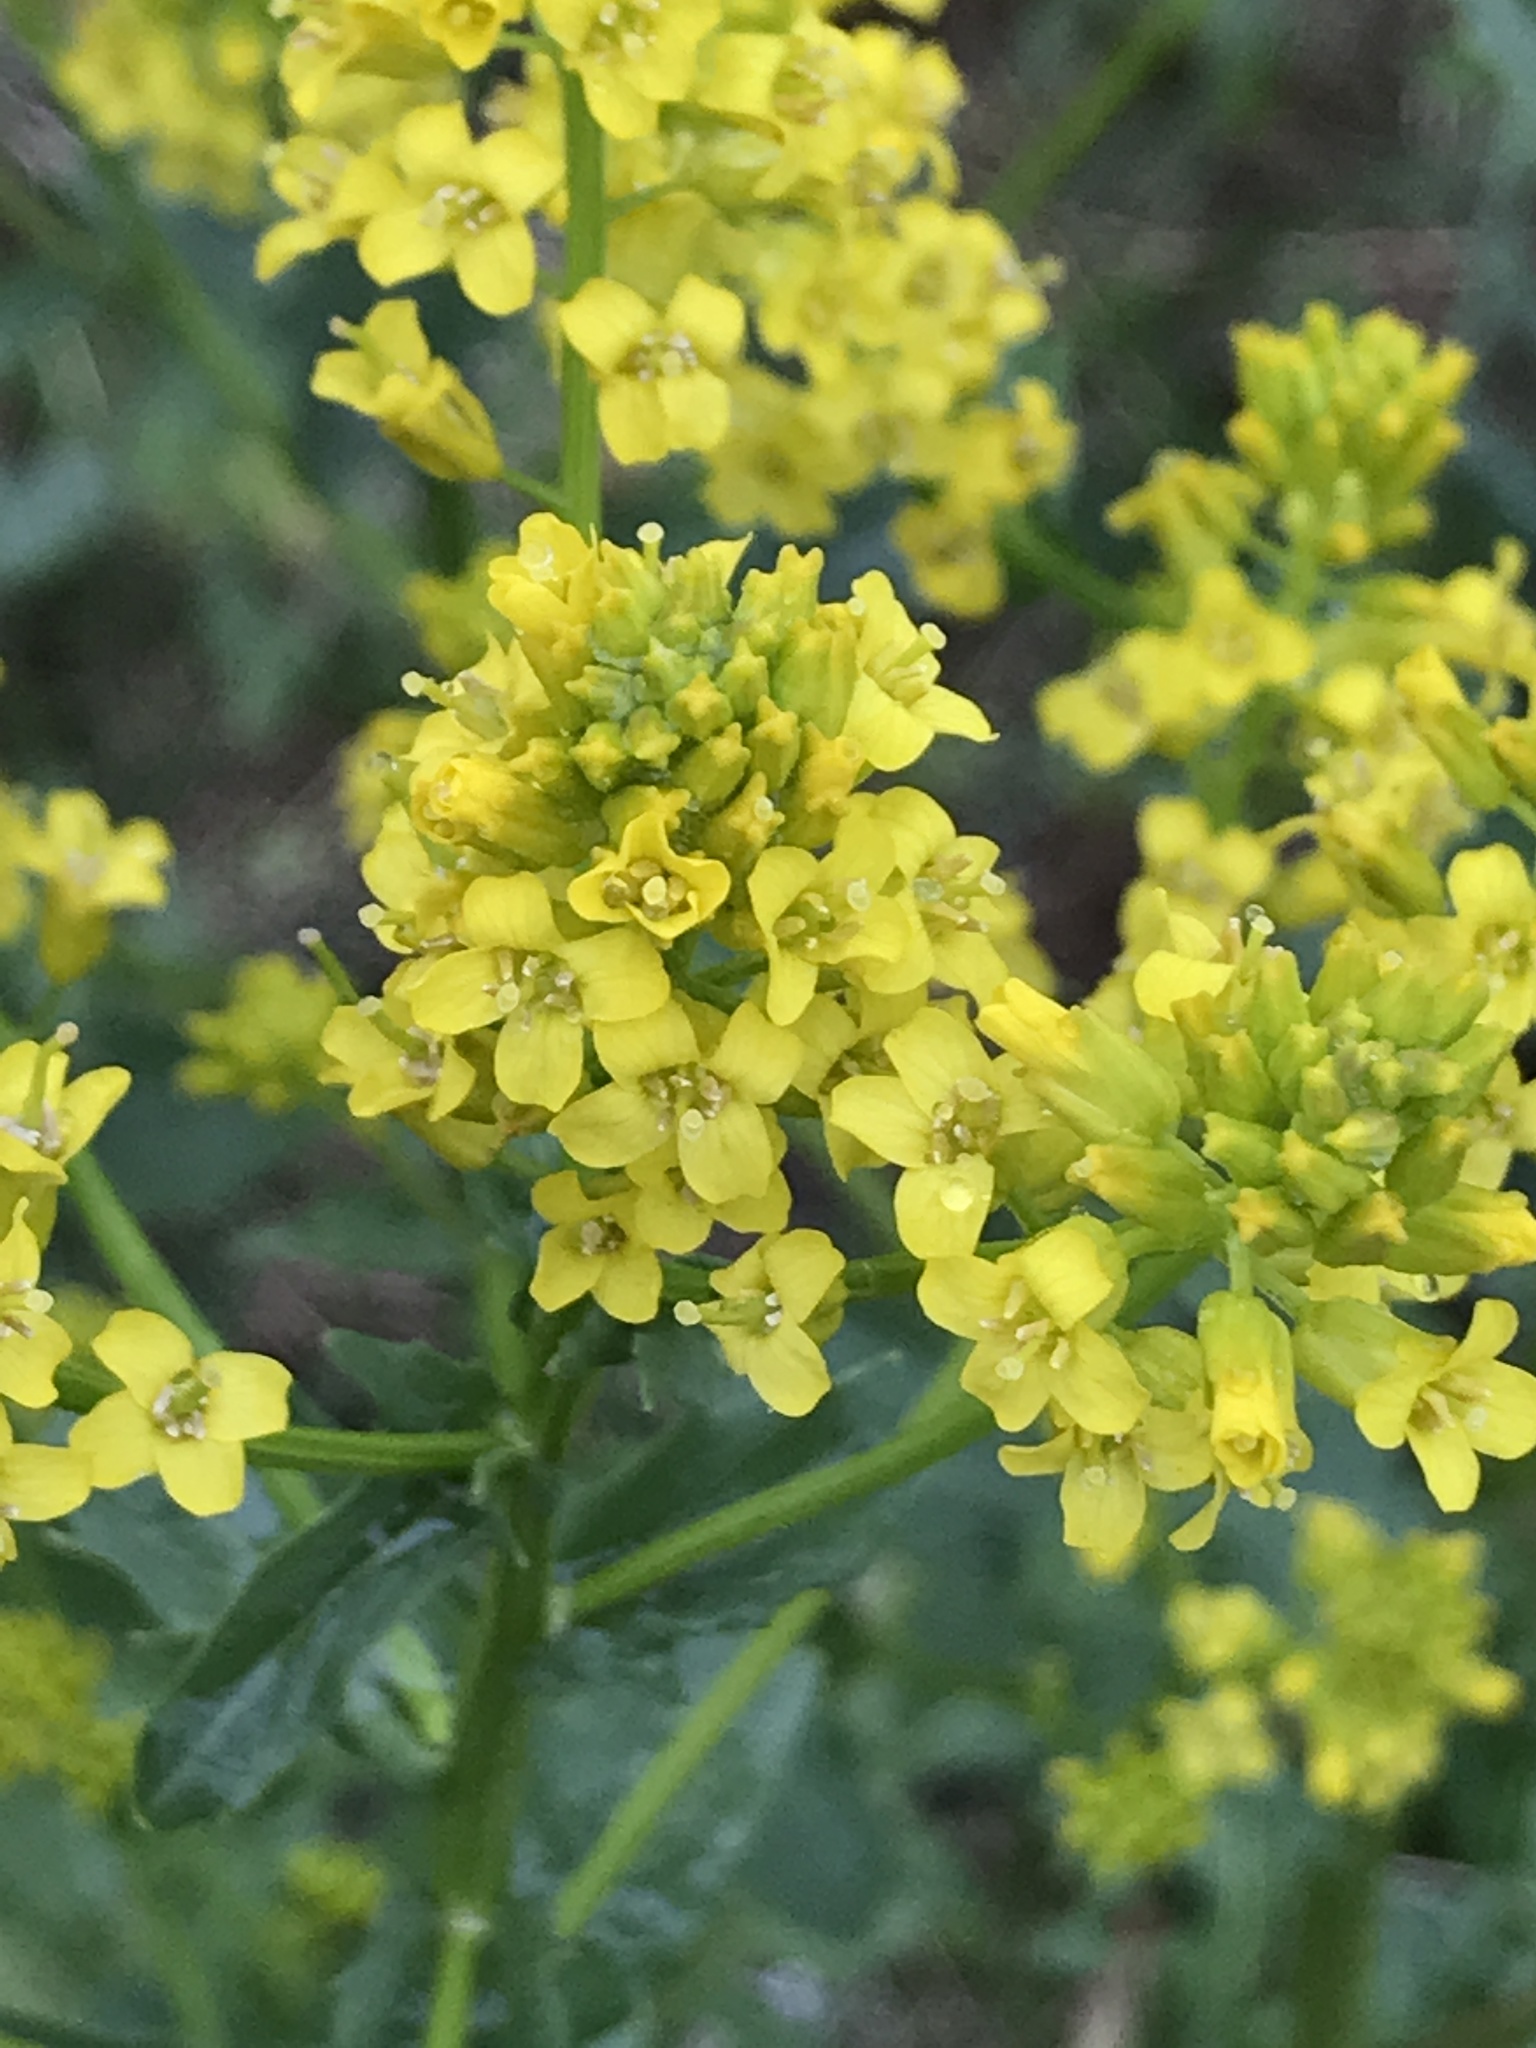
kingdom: Plantae
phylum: Tracheophyta
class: Magnoliopsida
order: Brassicales
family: Brassicaceae
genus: Barbarea
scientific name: Barbarea vulgaris
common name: Cressy-greens
